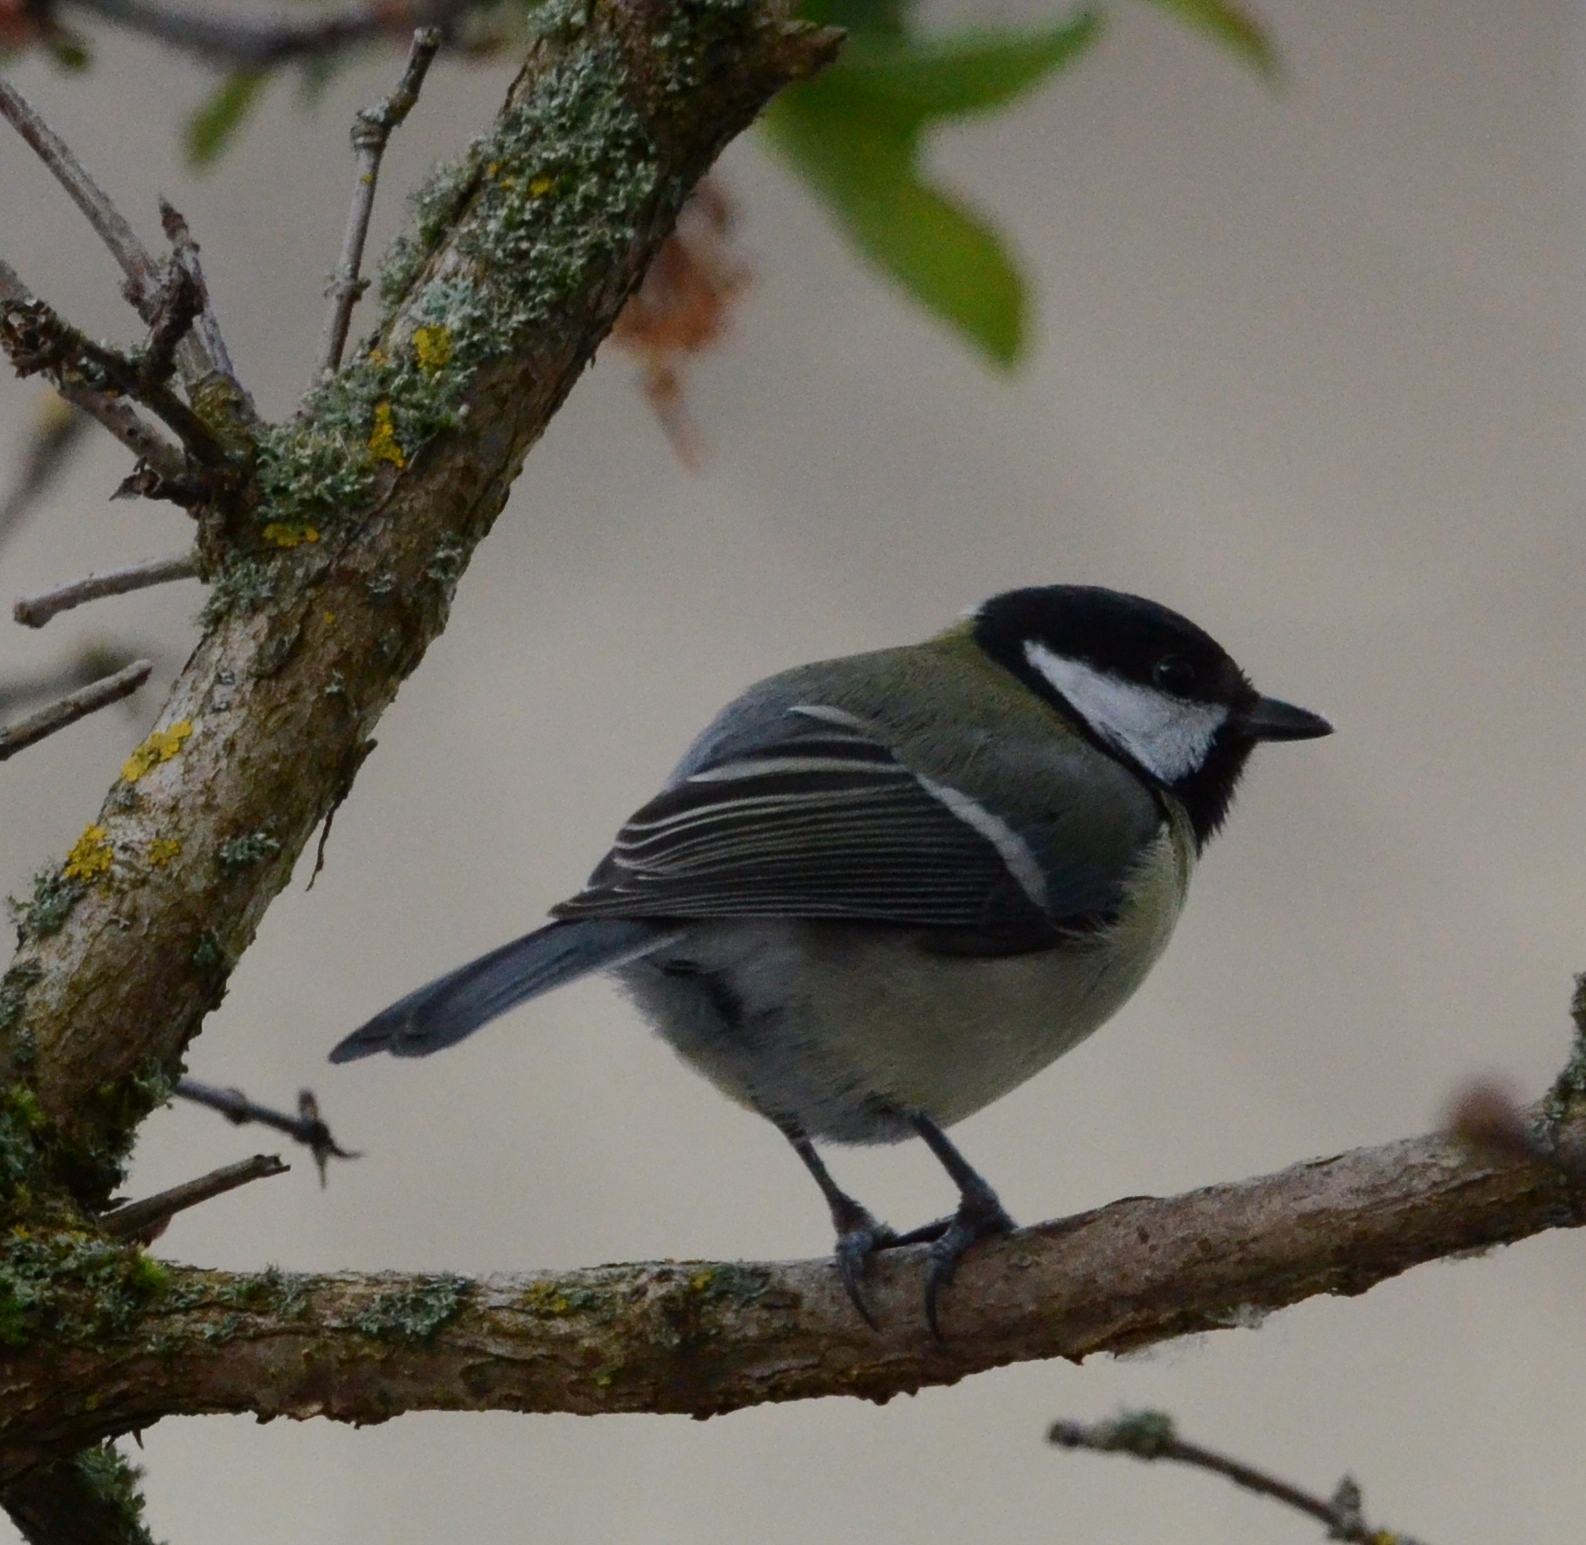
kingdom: Animalia
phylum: Chordata
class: Aves
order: Passeriformes
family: Paridae
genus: Parus
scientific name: Parus major
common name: Great tit
